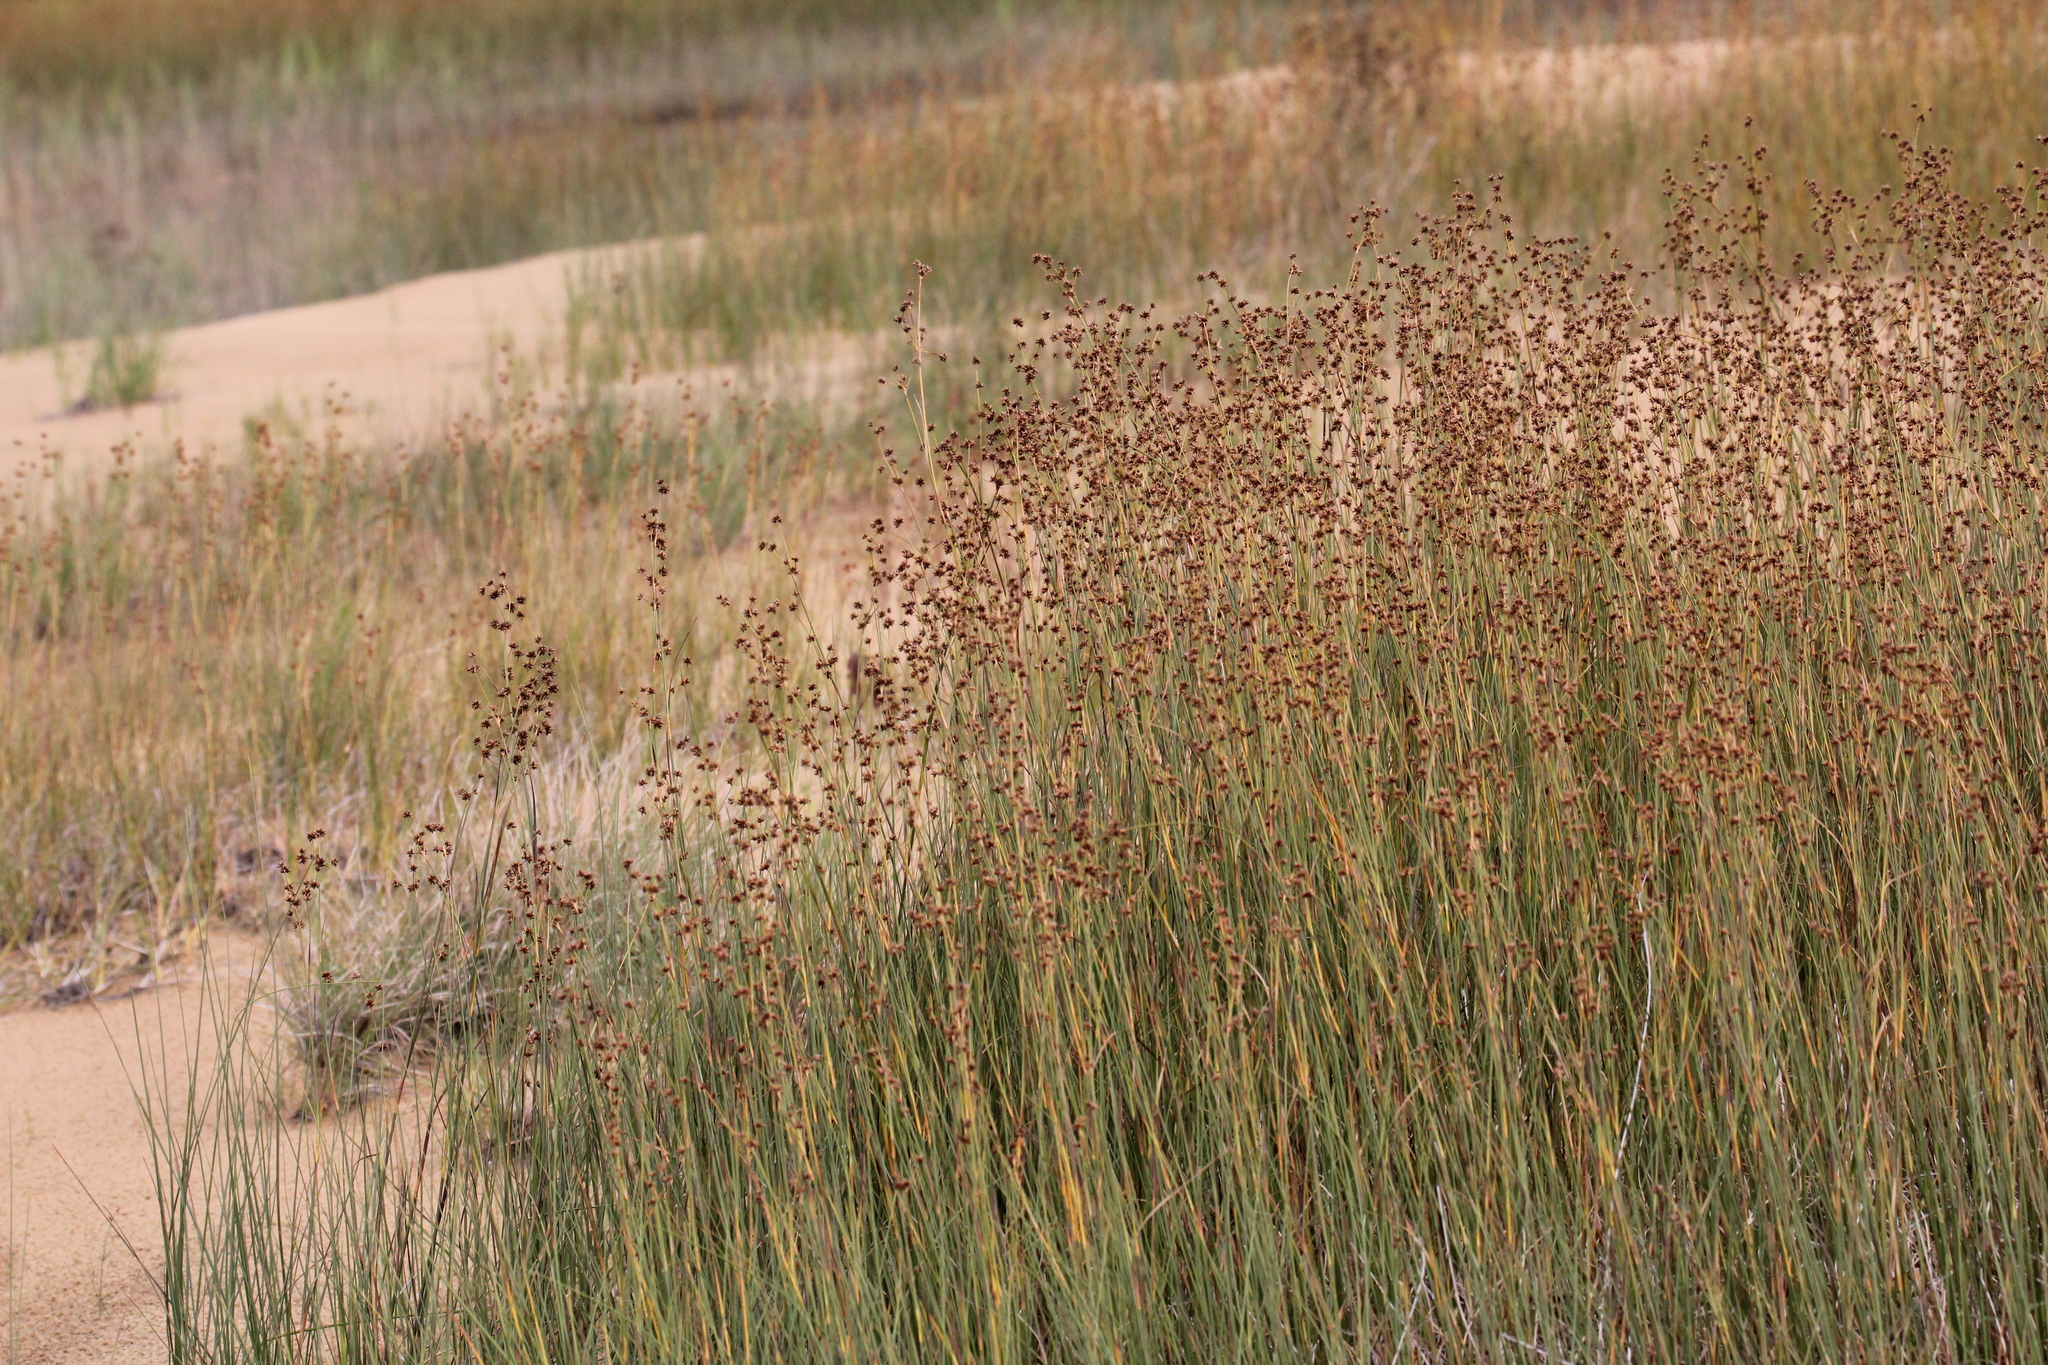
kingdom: Plantae
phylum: Tracheophyta
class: Liliopsida
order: Poales
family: Cyperaceae
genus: Cladium
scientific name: Cladium mariscoides
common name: Smooth sawgrass
